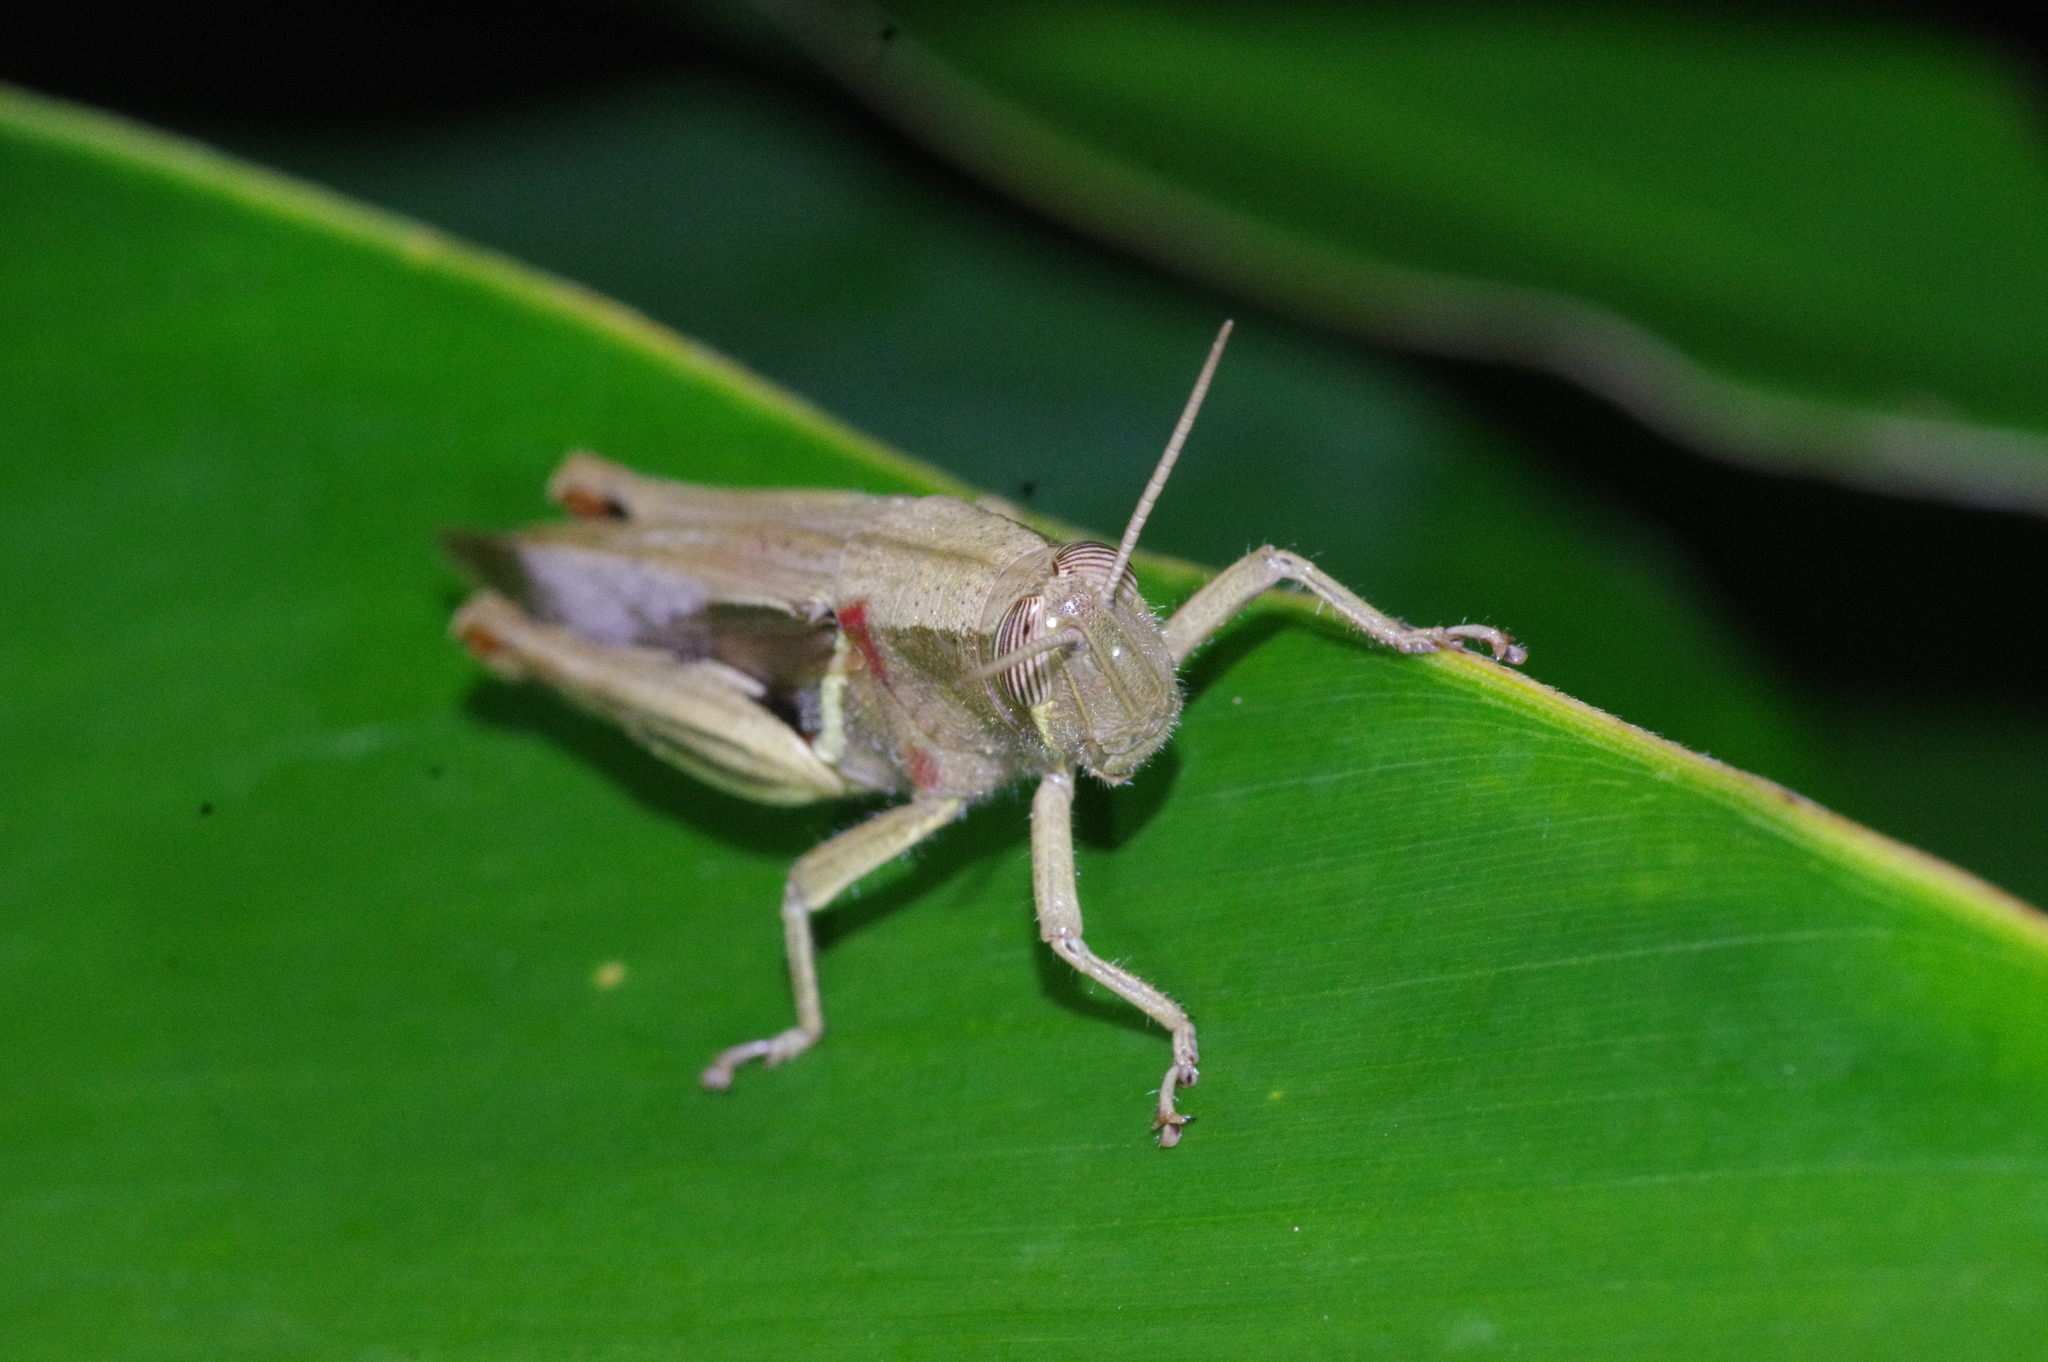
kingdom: Animalia
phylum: Arthropoda
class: Insecta
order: Orthoptera
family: Acrididae
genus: Stenocatantops
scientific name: Stenocatantops mistshenkoi
